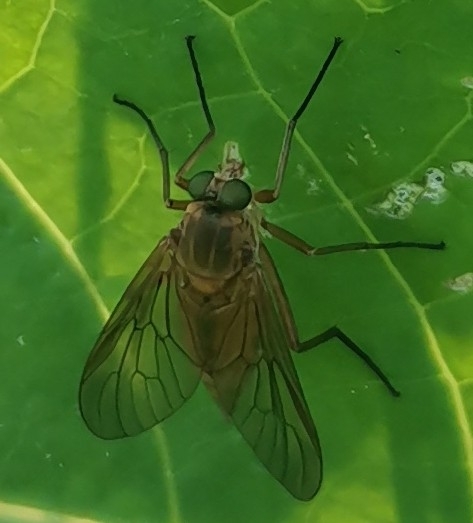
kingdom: Animalia
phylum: Arthropoda
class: Insecta
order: Diptera
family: Rhagionidae
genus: Rhagio
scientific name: Rhagio tringaria
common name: Marsh snipefly
